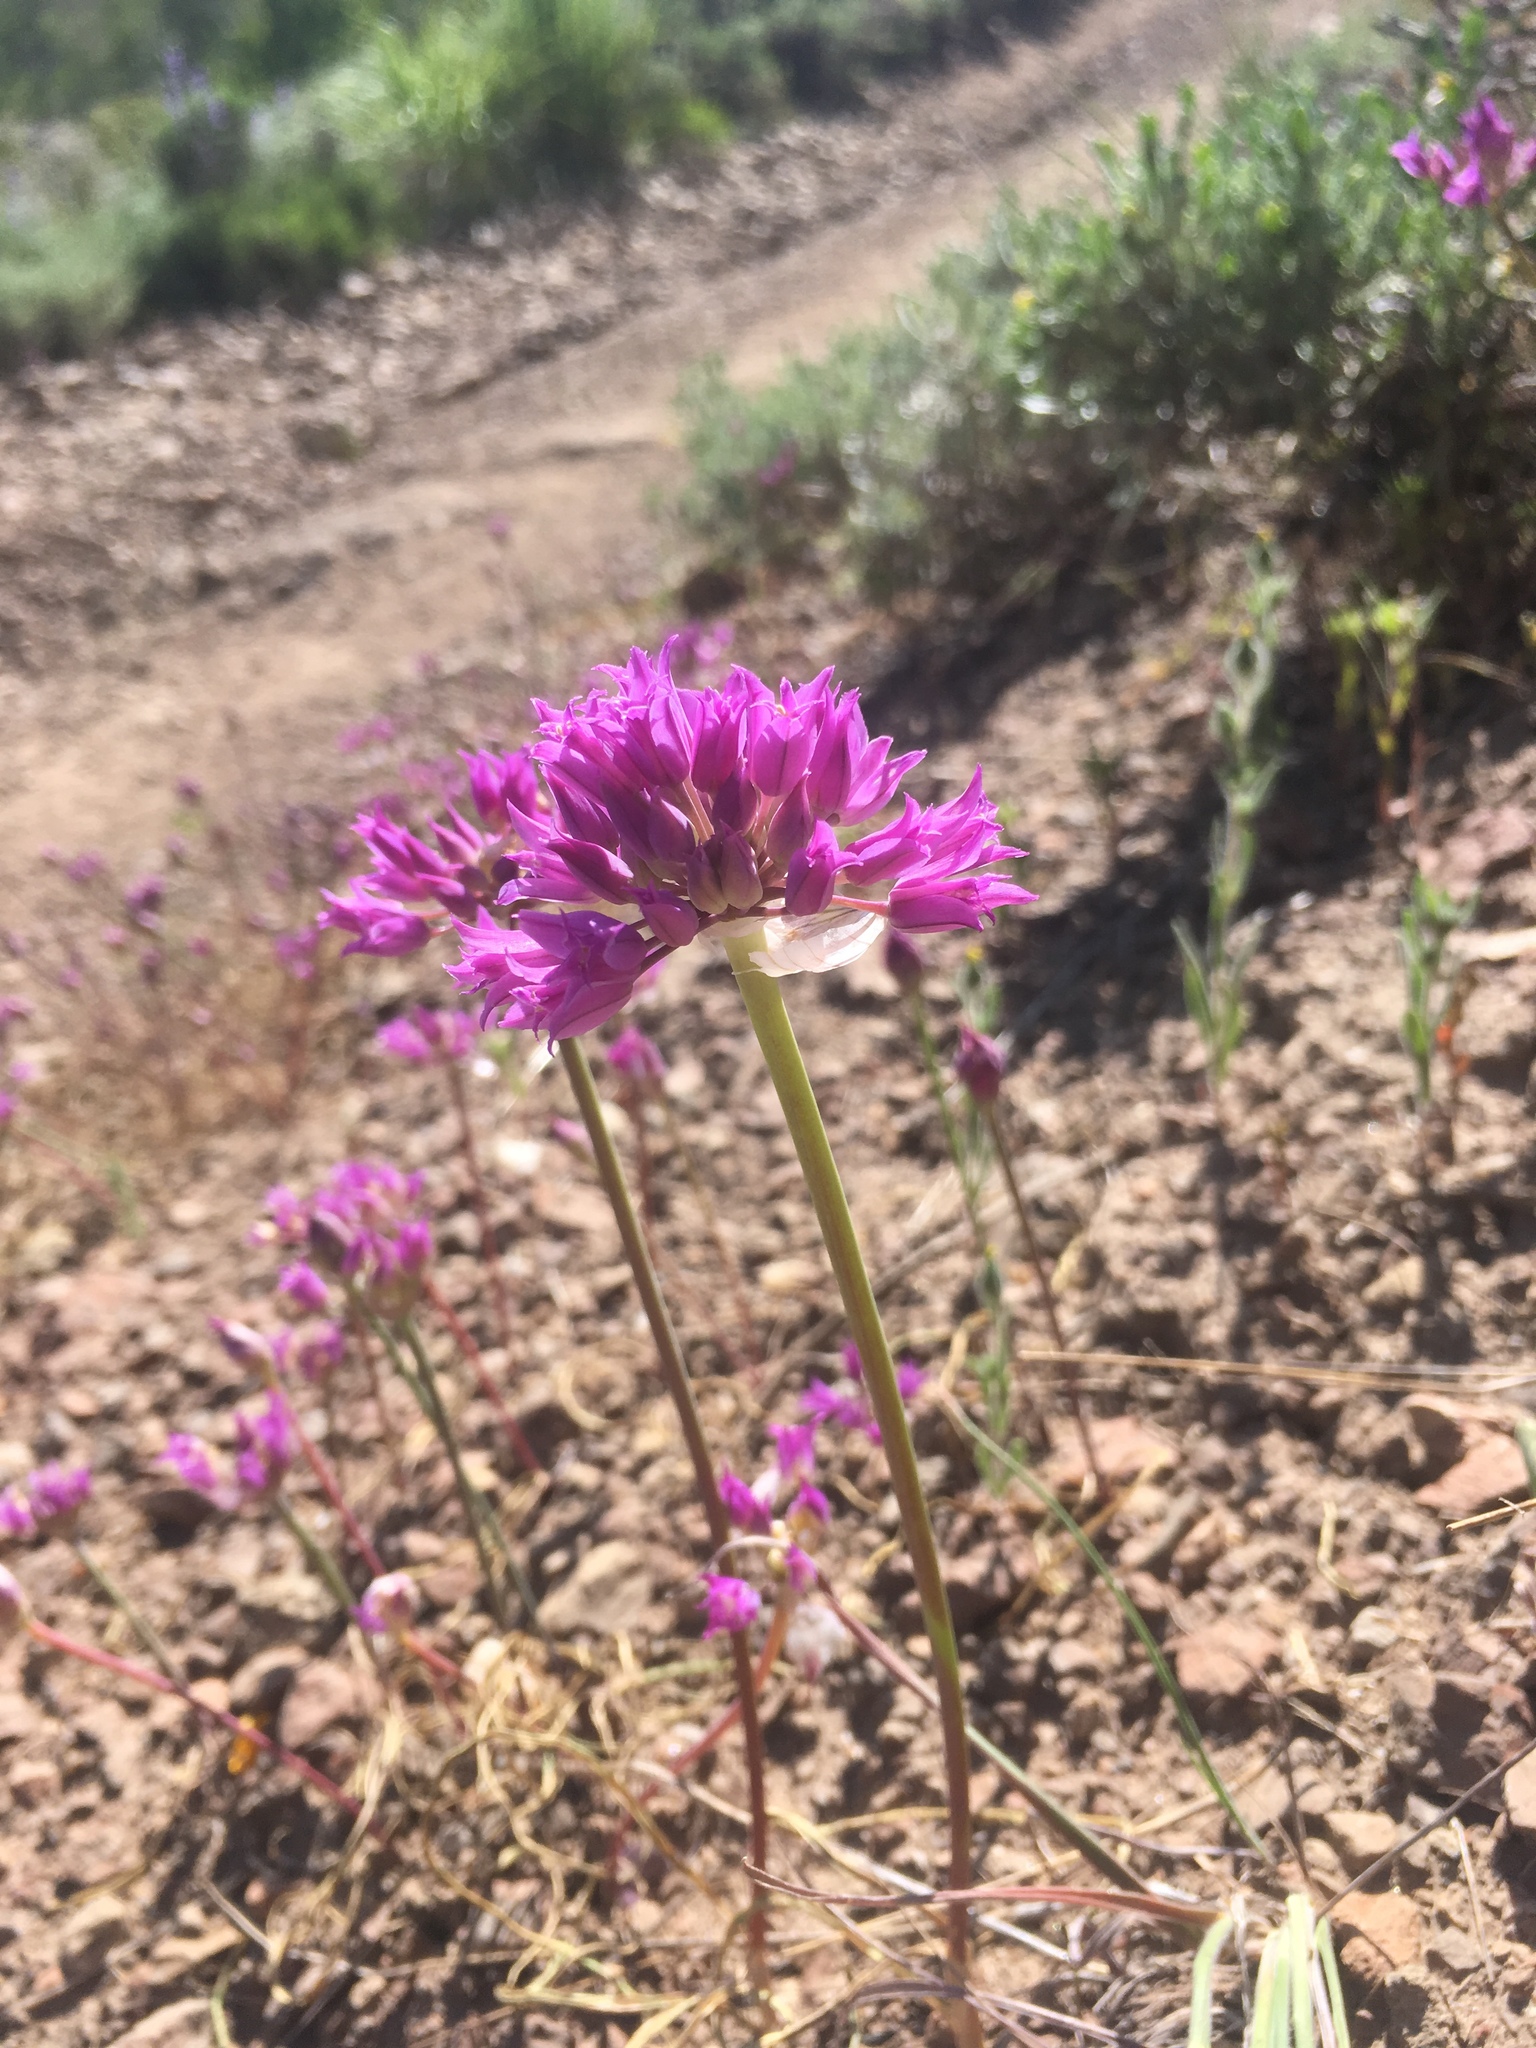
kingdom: Plantae
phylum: Tracheophyta
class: Liliopsida
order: Asparagales
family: Amaryllidaceae
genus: Allium
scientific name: Allium acuminatum
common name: Hooker's onion
